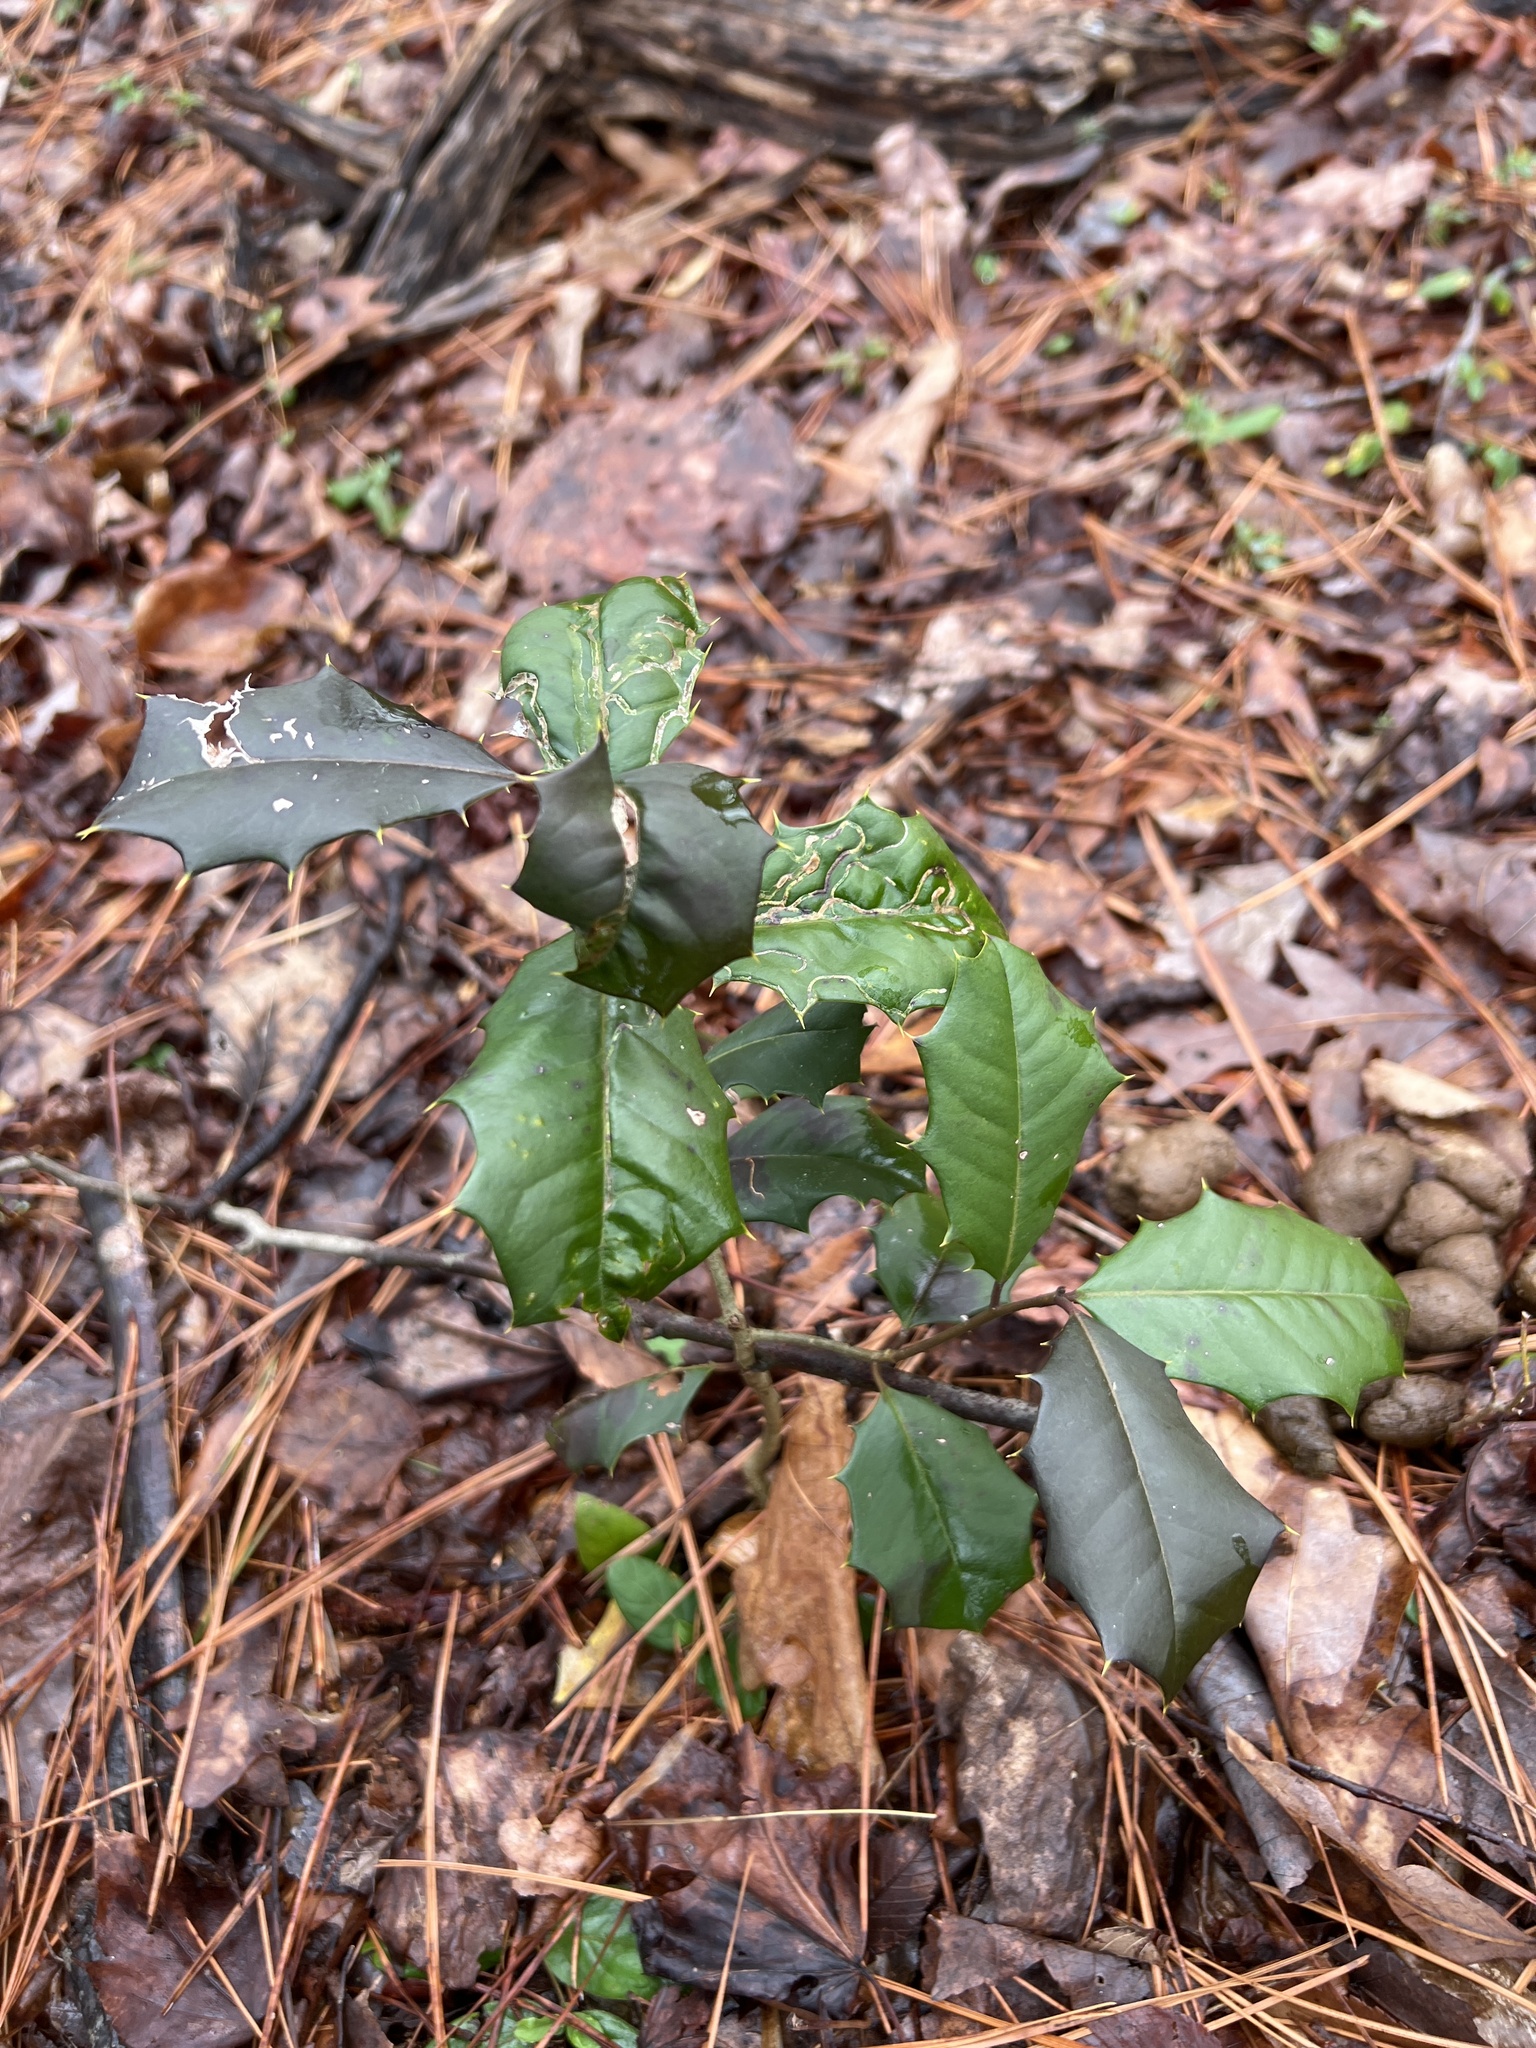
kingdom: Plantae
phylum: Tracheophyta
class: Magnoliopsida
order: Aquifoliales
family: Aquifoliaceae
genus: Ilex
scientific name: Ilex opaca
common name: American holly
